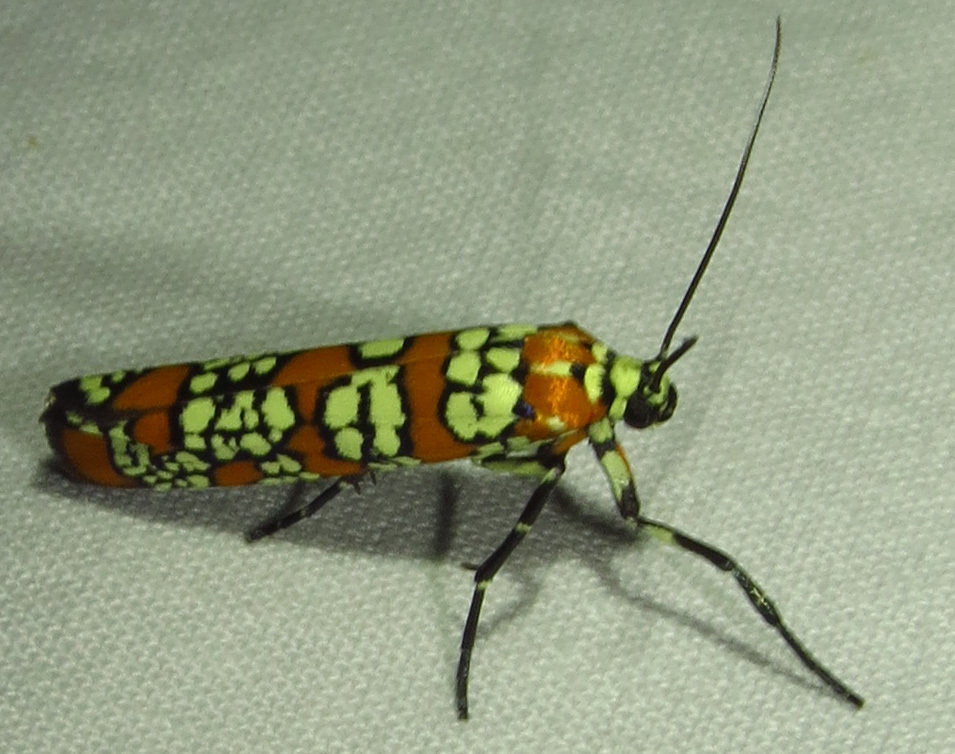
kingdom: Animalia
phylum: Arthropoda
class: Insecta
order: Lepidoptera
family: Attevidae
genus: Atteva
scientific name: Atteva punctella
